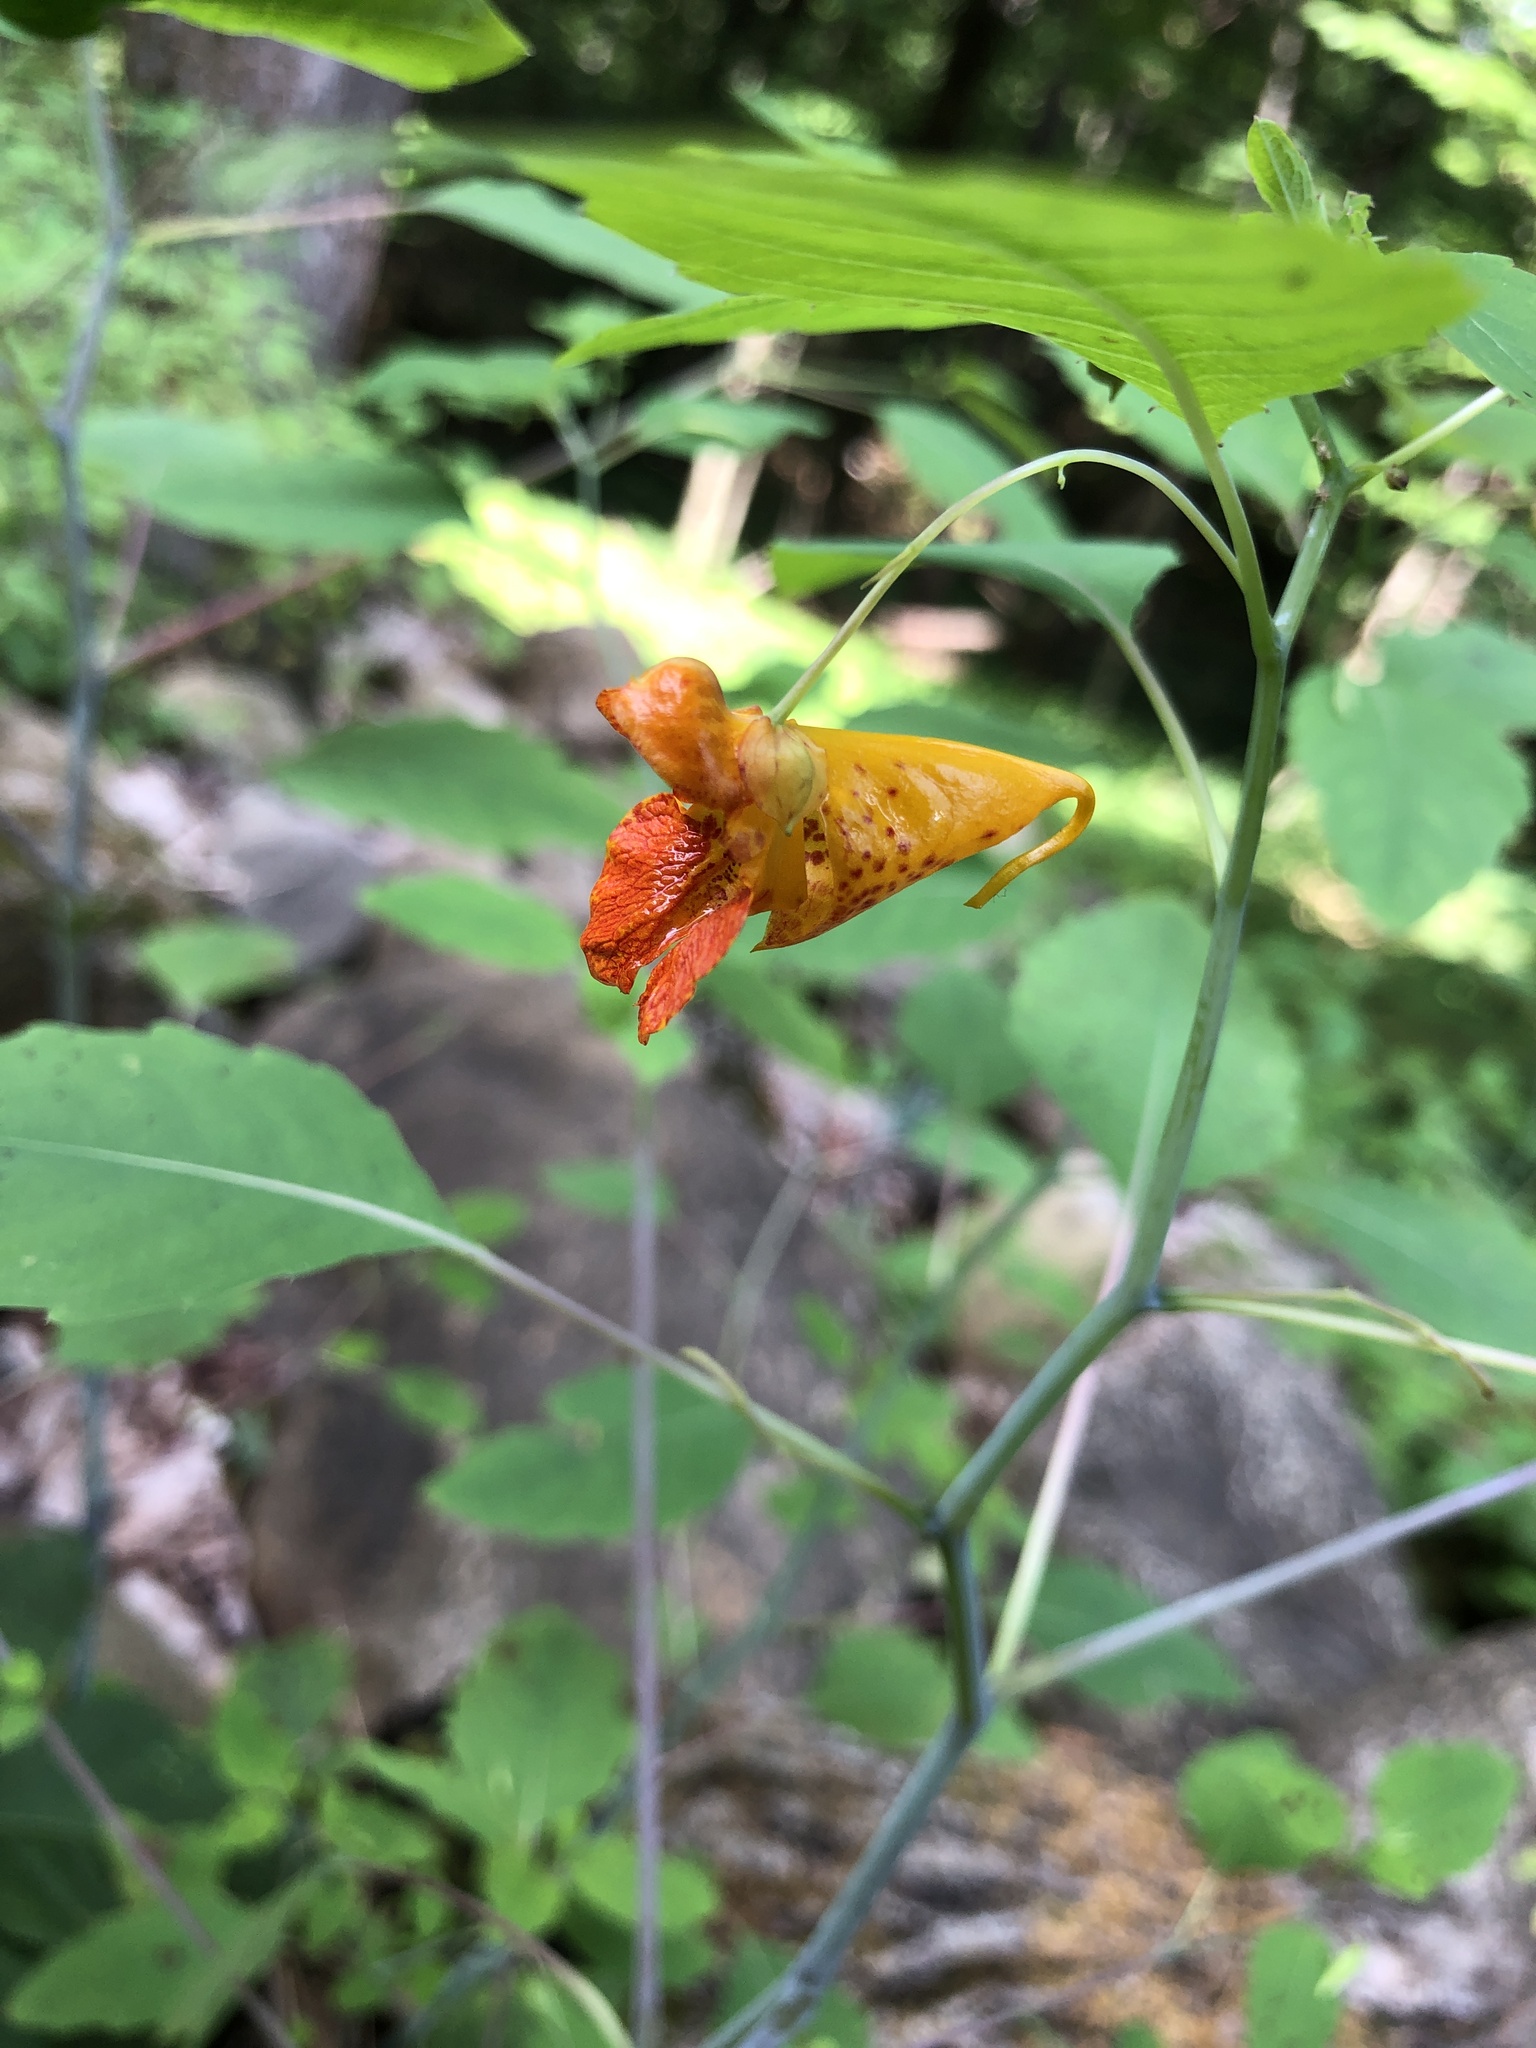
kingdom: Plantae
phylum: Tracheophyta
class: Magnoliopsida
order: Ericales
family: Balsaminaceae
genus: Impatiens
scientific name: Impatiens capensis
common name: Orange balsam
